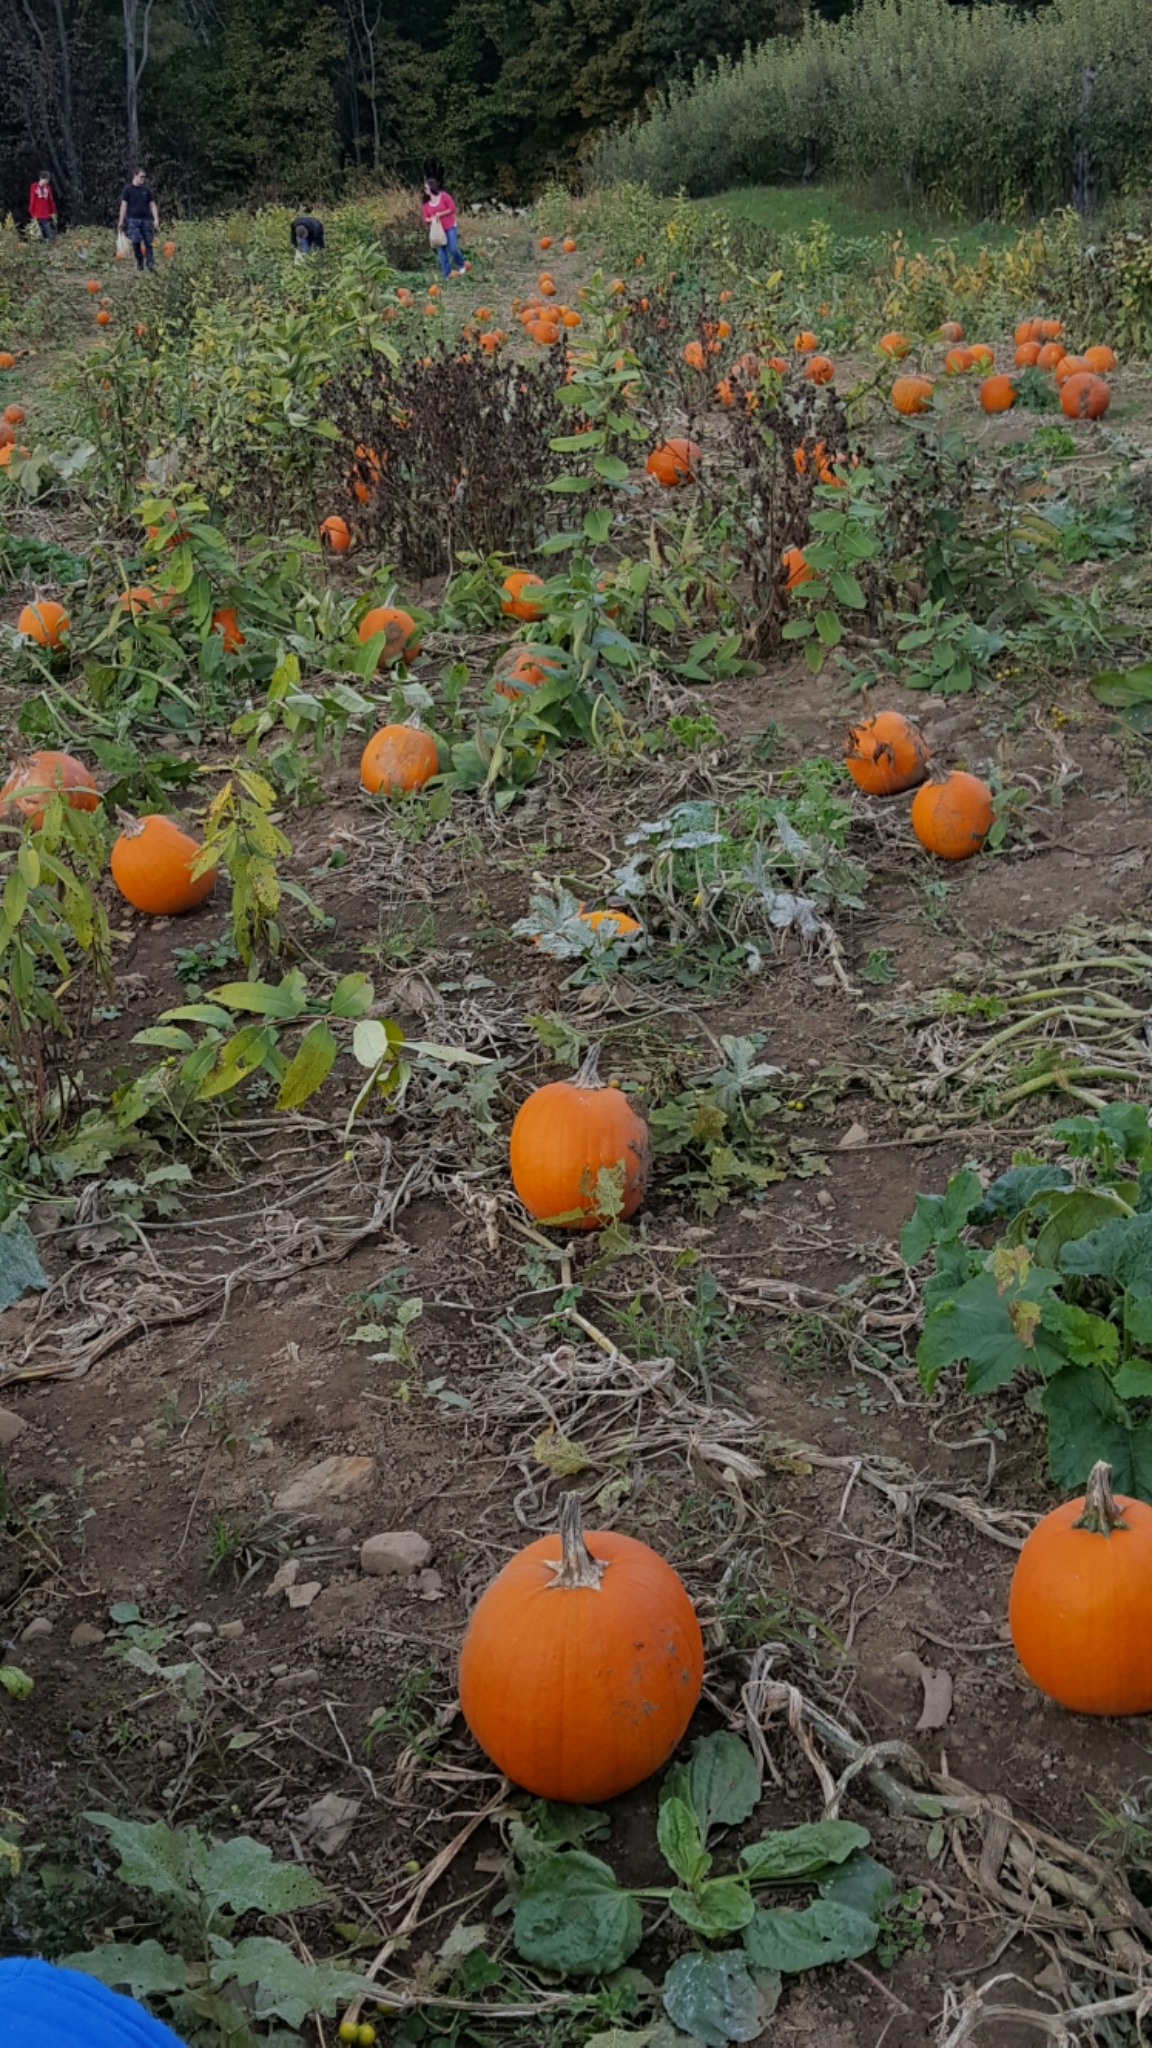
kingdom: Plantae
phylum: Tracheophyta
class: Magnoliopsida
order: Cucurbitales
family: Cucurbitaceae
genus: Cucurbita
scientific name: Cucurbita pepo
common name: Marrow
